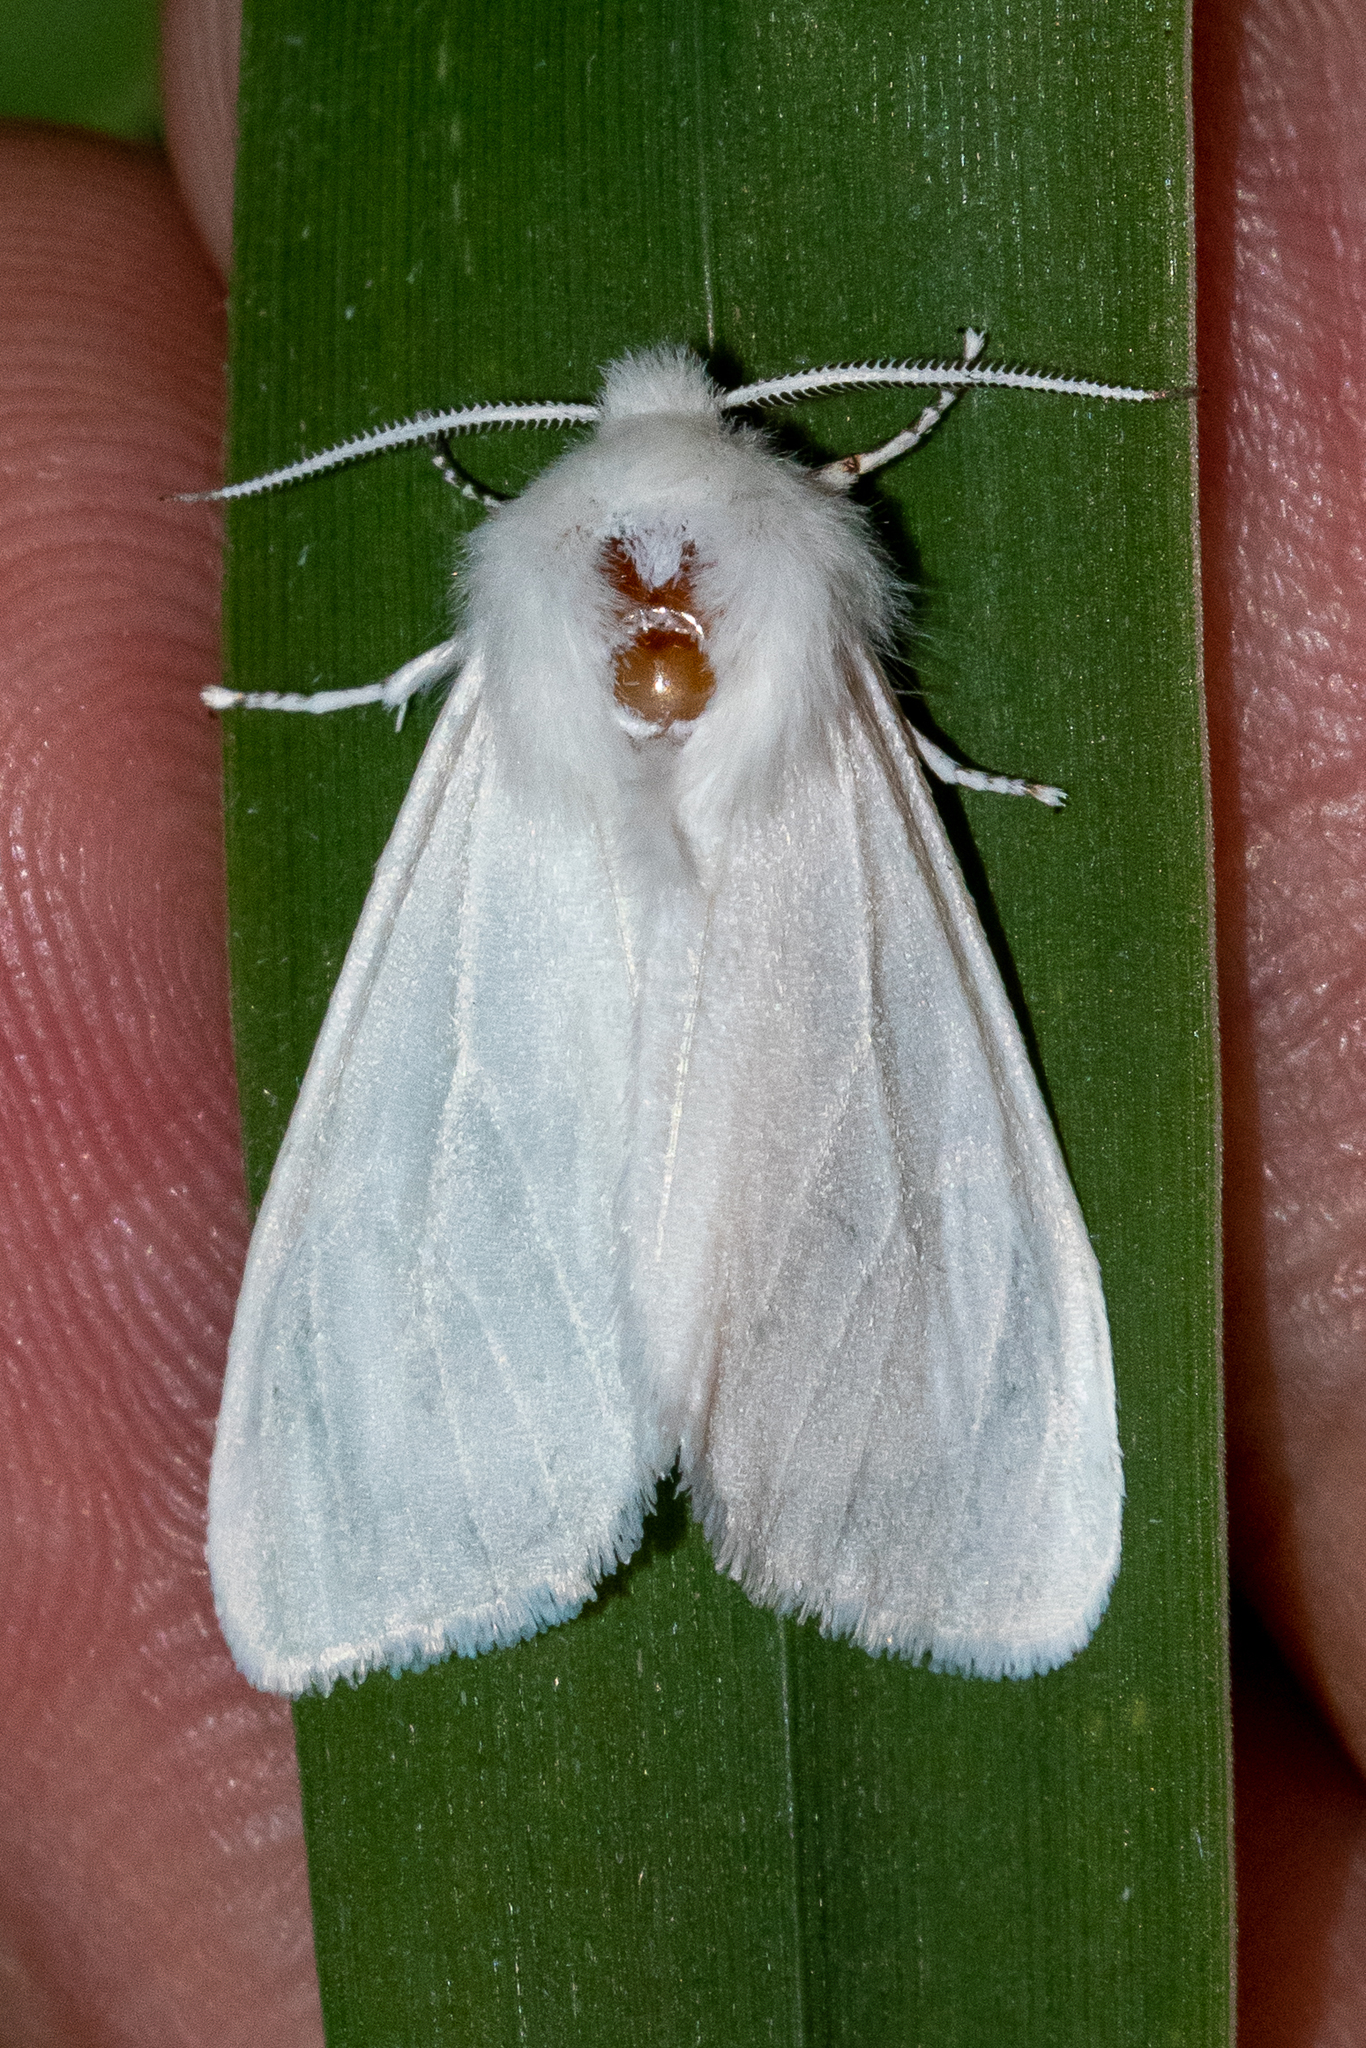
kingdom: Animalia
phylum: Arthropoda
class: Insecta
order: Lepidoptera
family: Erebidae
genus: Hyphantria
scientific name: Hyphantria cunea
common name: American white moth
